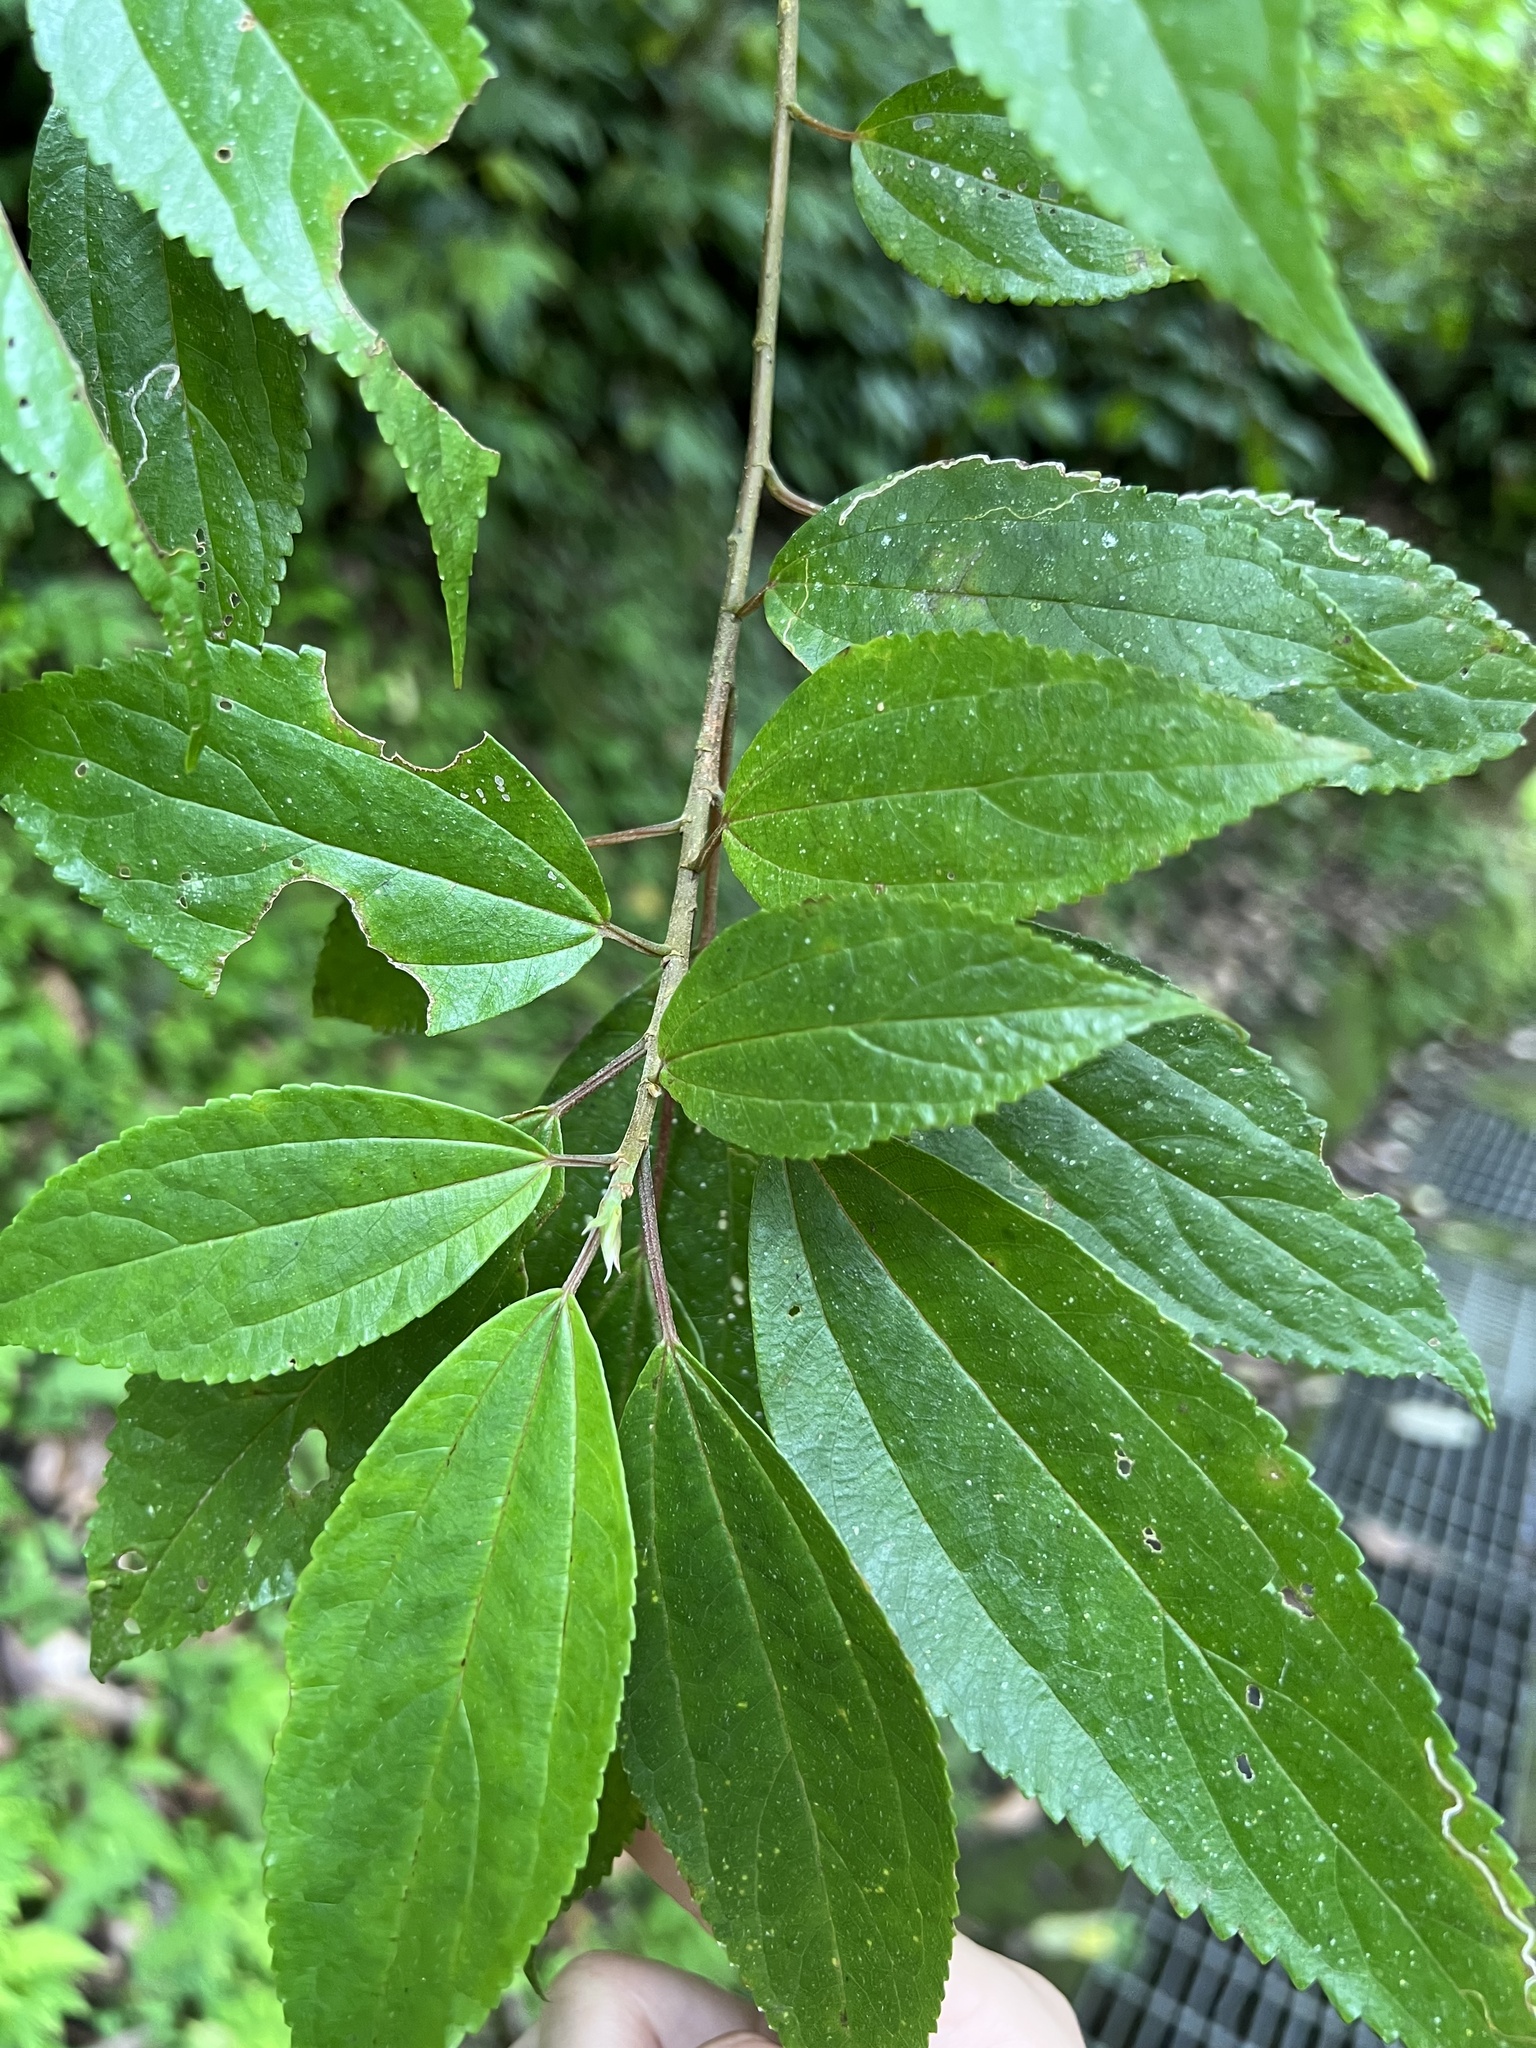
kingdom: Plantae
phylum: Tracheophyta
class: Magnoliopsida
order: Rosales
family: Urticaceae
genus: Oreocnide
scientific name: Oreocnide pedunculata
